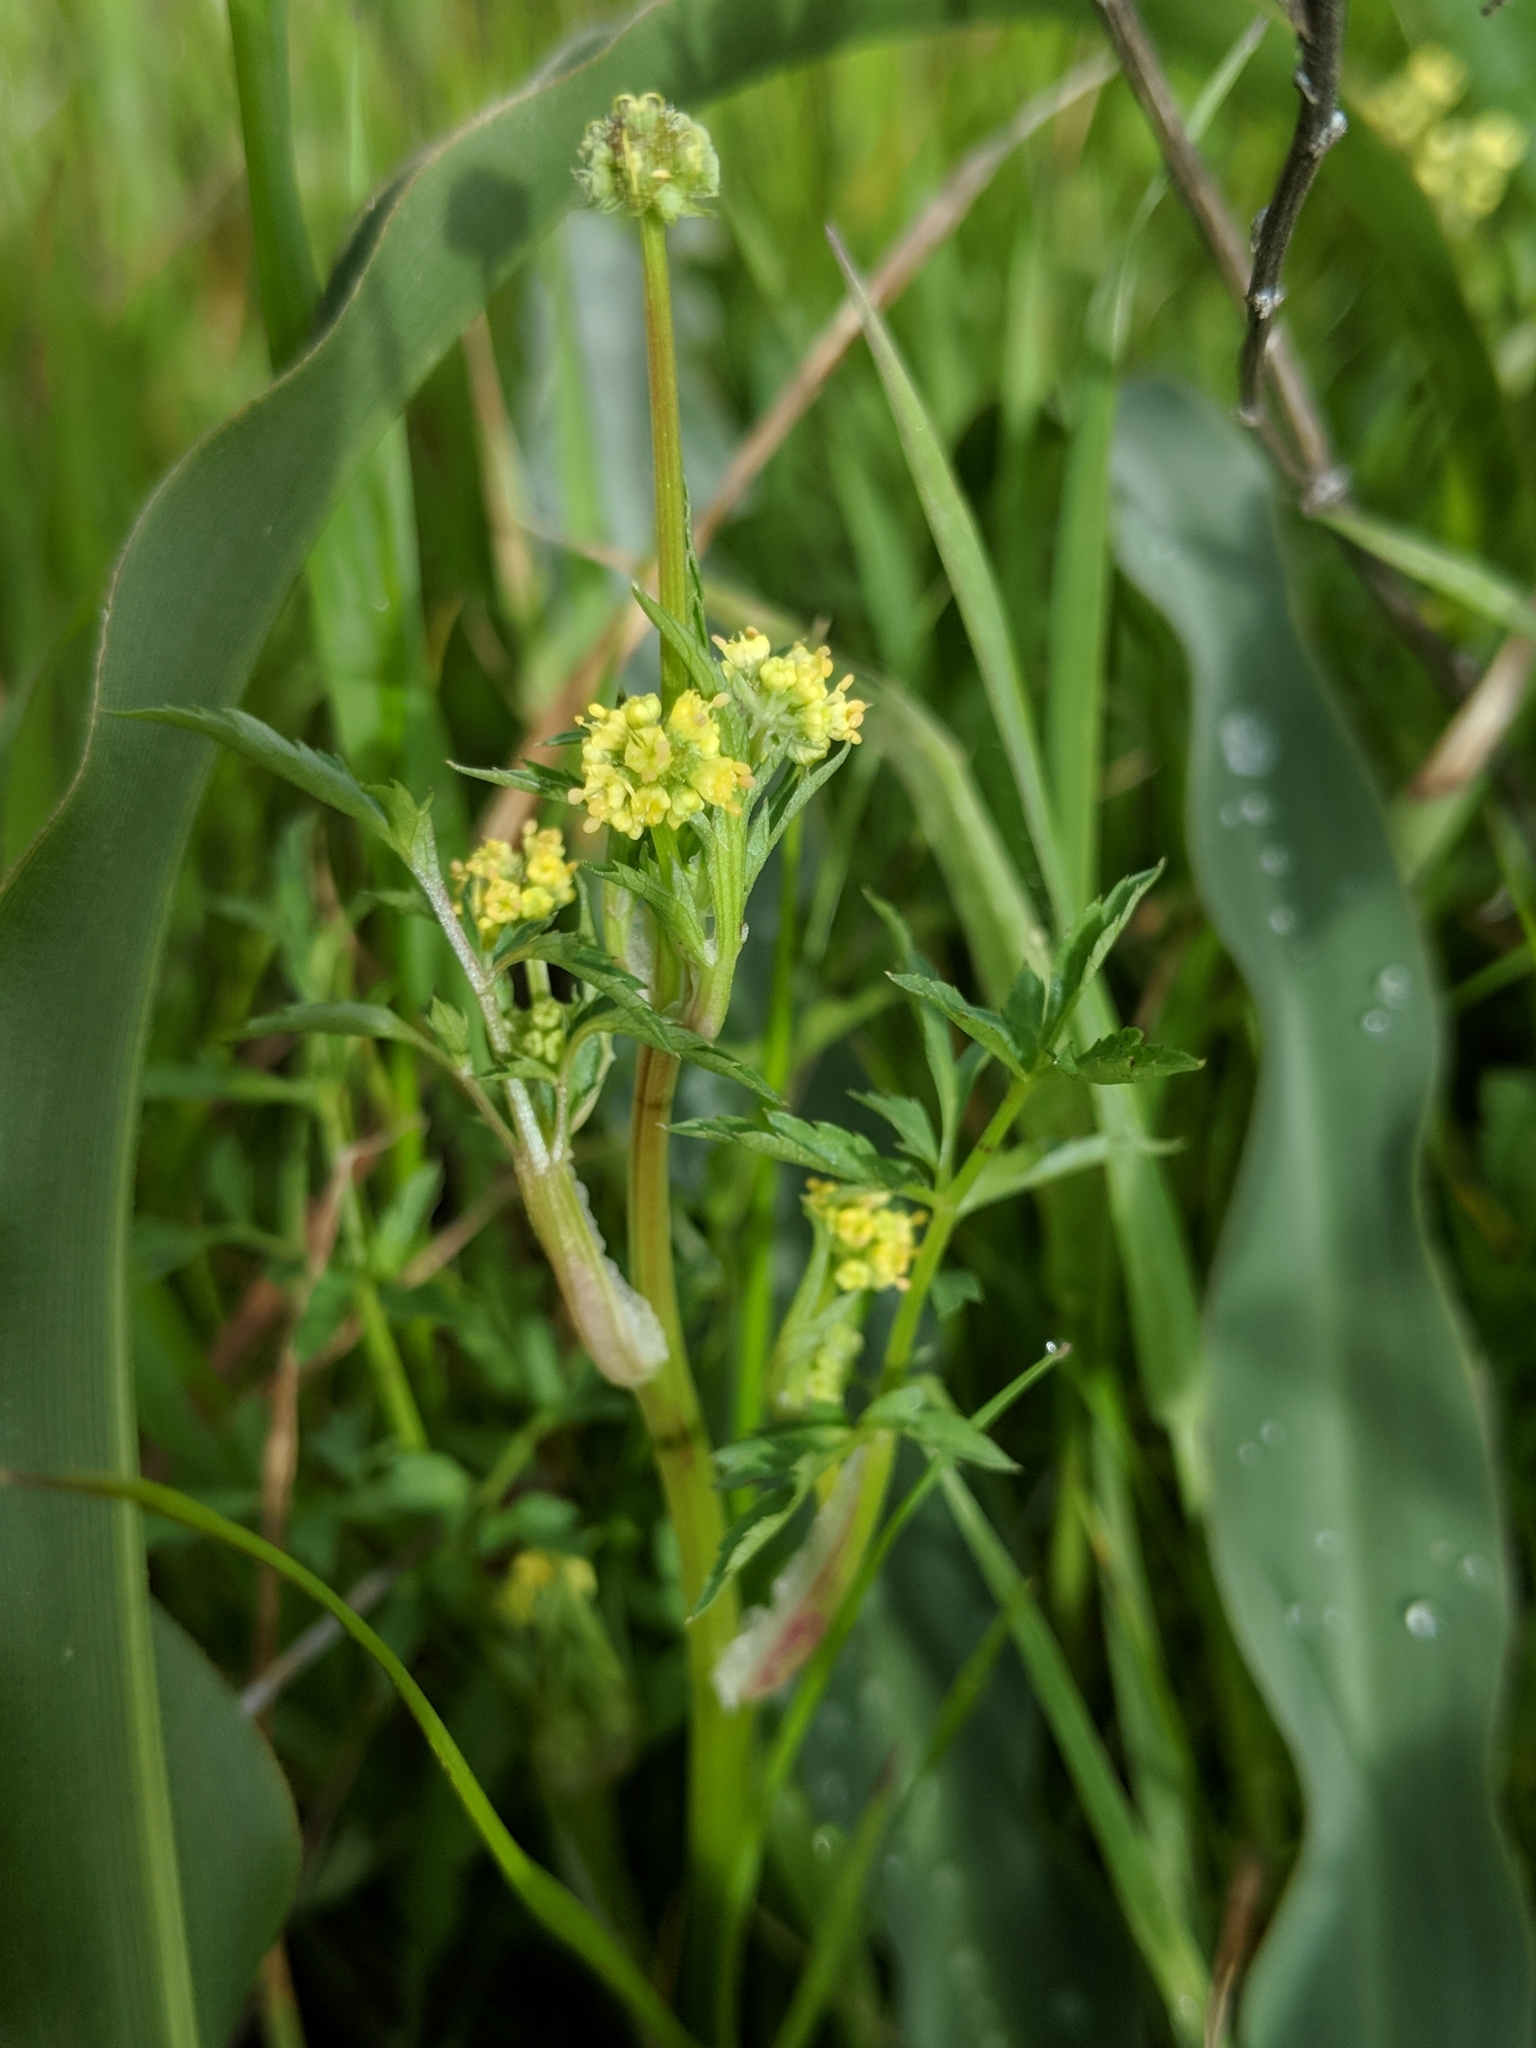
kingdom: Plantae
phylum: Tracheophyta
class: Magnoliopsida
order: Apiales
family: Apiaceae
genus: Sanicula
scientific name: Sanicula bipinnata
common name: Poison sanicle
